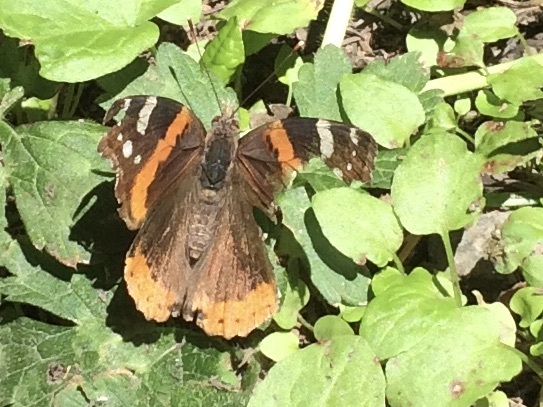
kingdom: Animalia
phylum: Arthropoda
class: Insecta
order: Lepidoptera
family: Nymphalidae
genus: Vanessa
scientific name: Vanessa atalanta
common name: Red admiral
